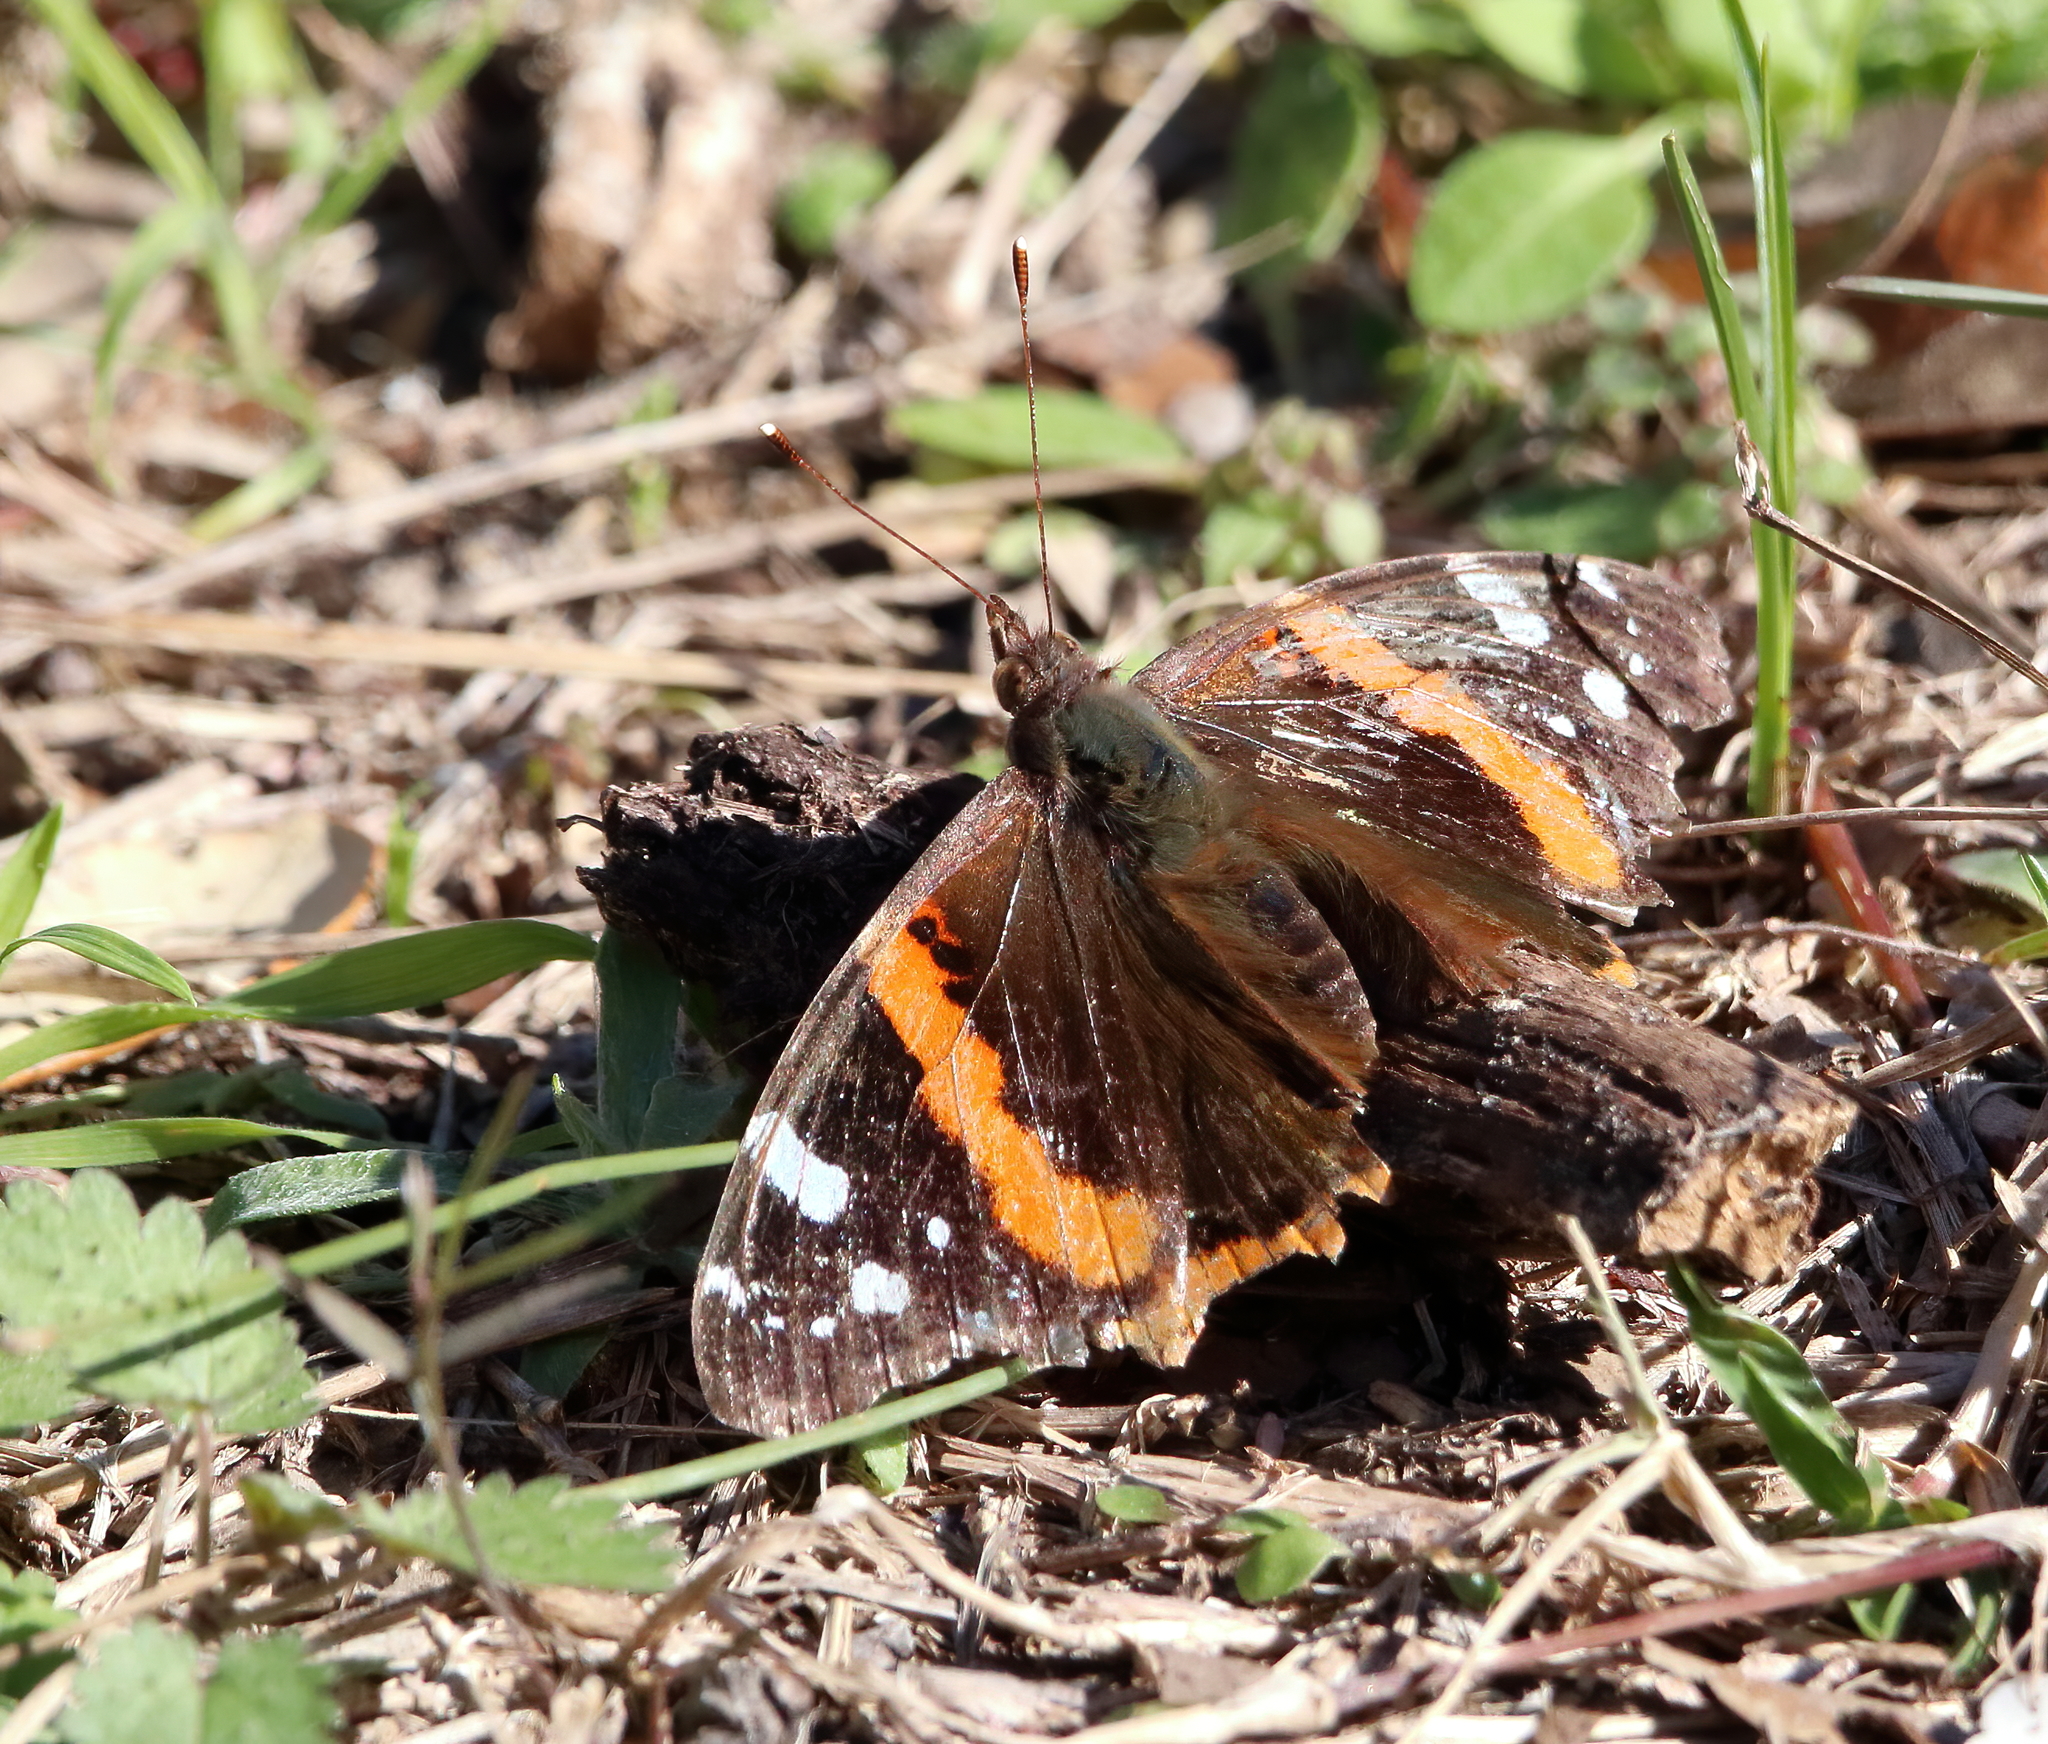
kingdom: Animalia
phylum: Arthropoda
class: Insecta
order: Lepidoptera
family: Nymphalidae
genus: Vanessa
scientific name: Vanessa atalanta
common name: Red admiral
